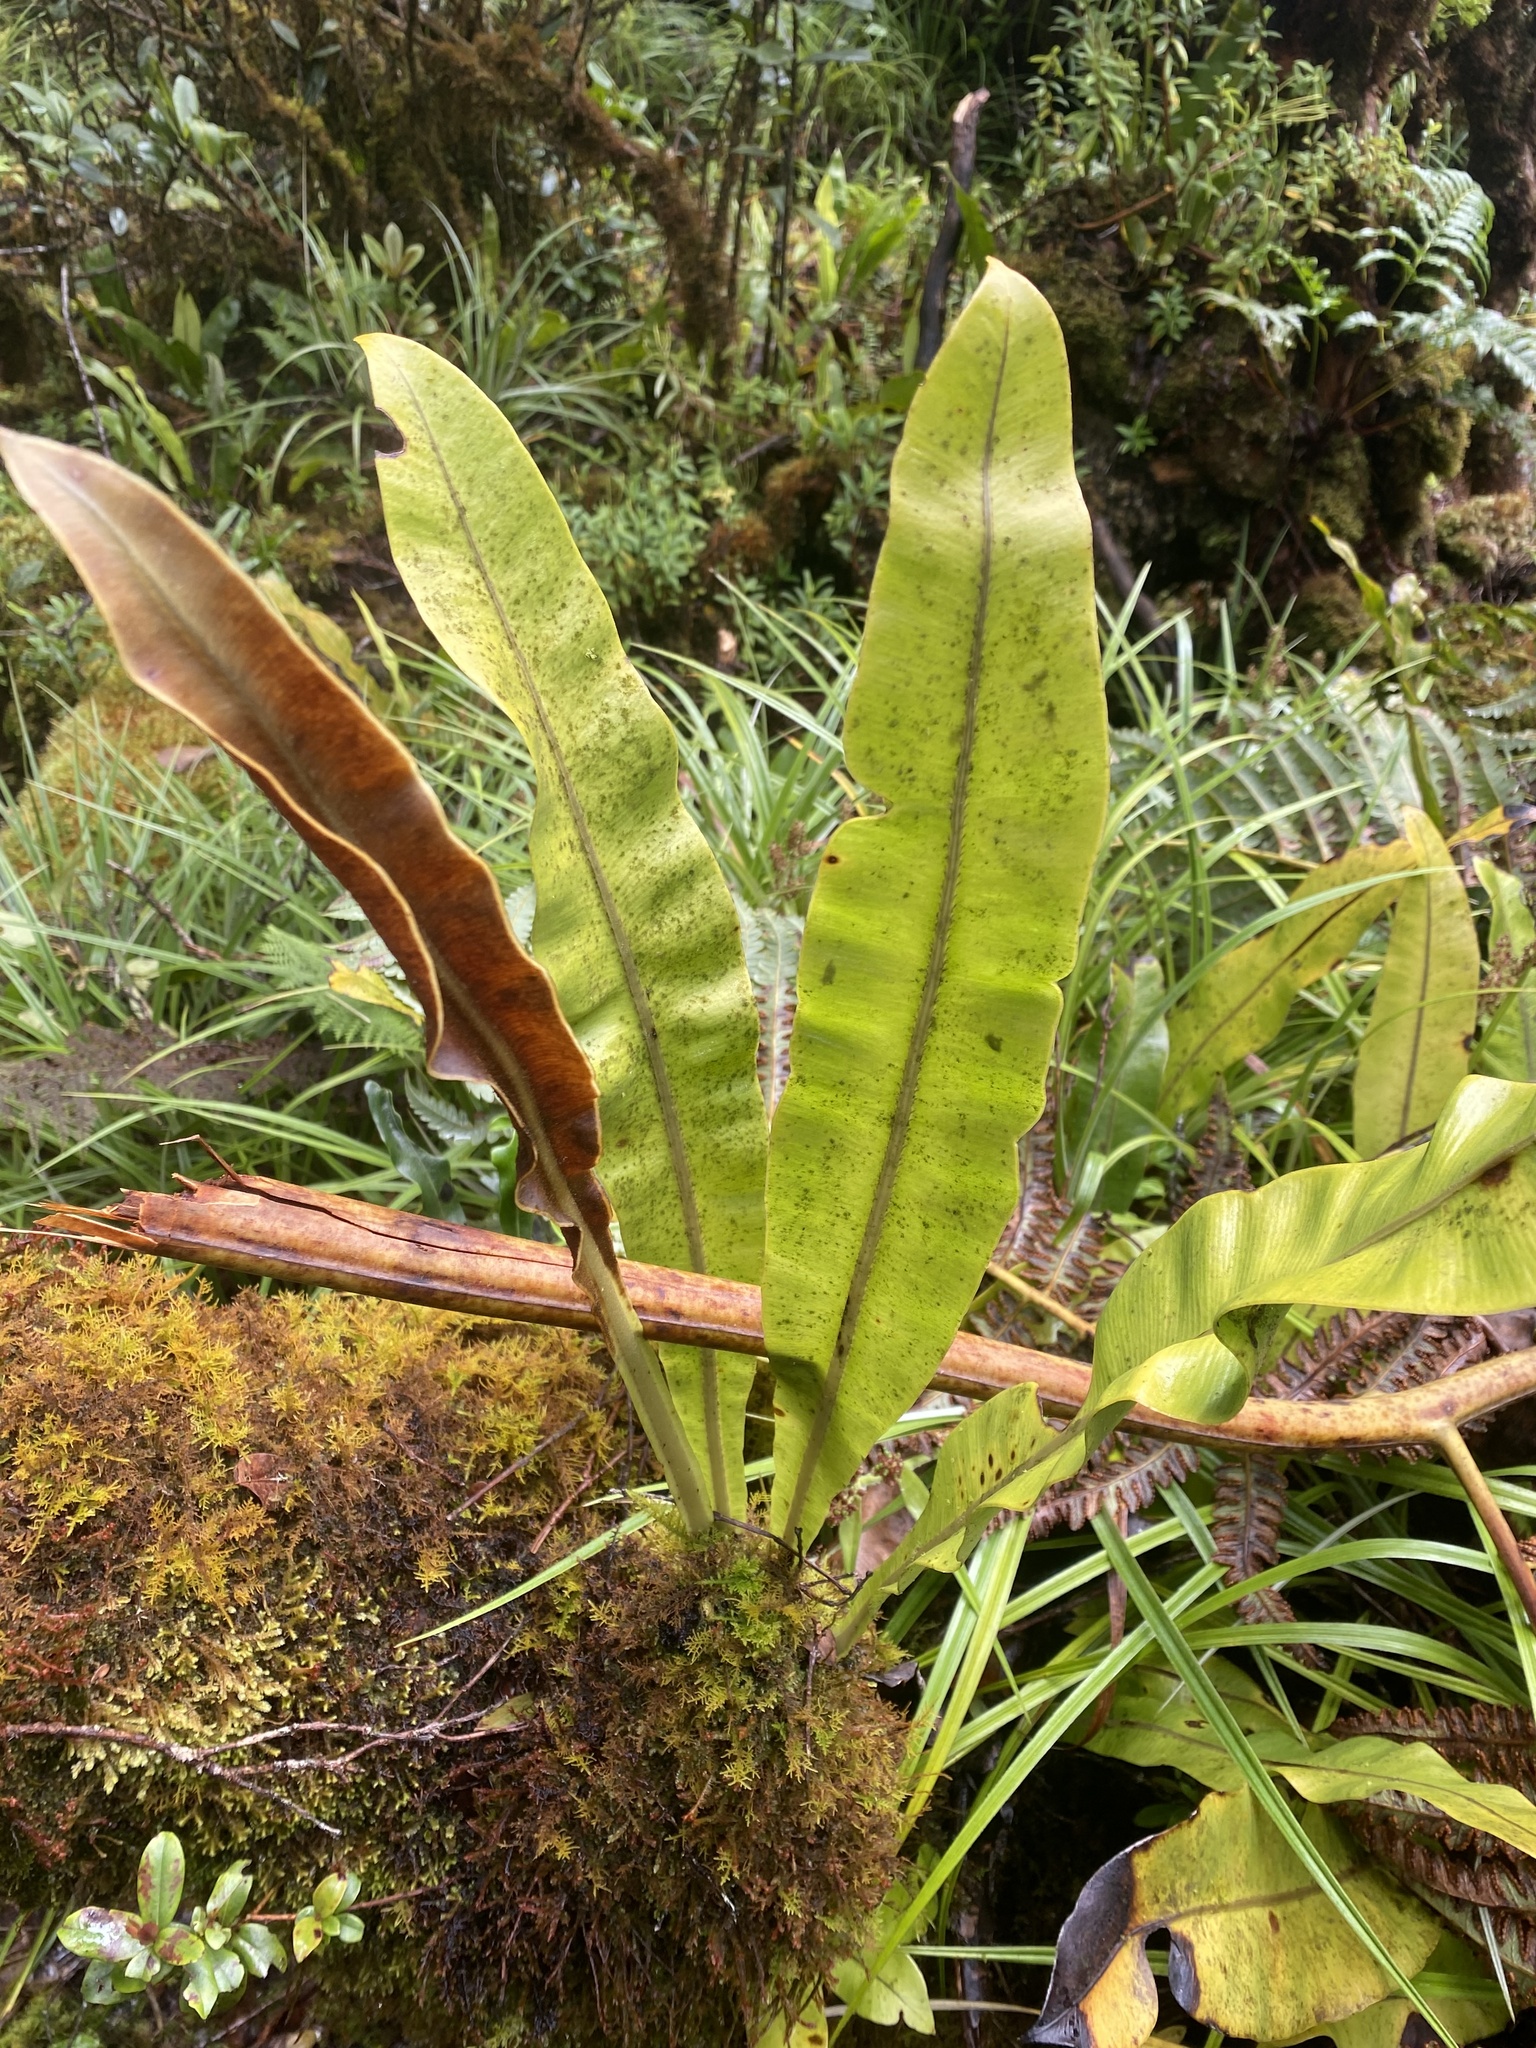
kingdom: Plantae
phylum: Tracheophyta
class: Polypodiopsida
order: Polypodiales
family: Dryopteridaceae
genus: Elaphoglossum
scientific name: Elaphoglossum crassicaule
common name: Maui's paddle
